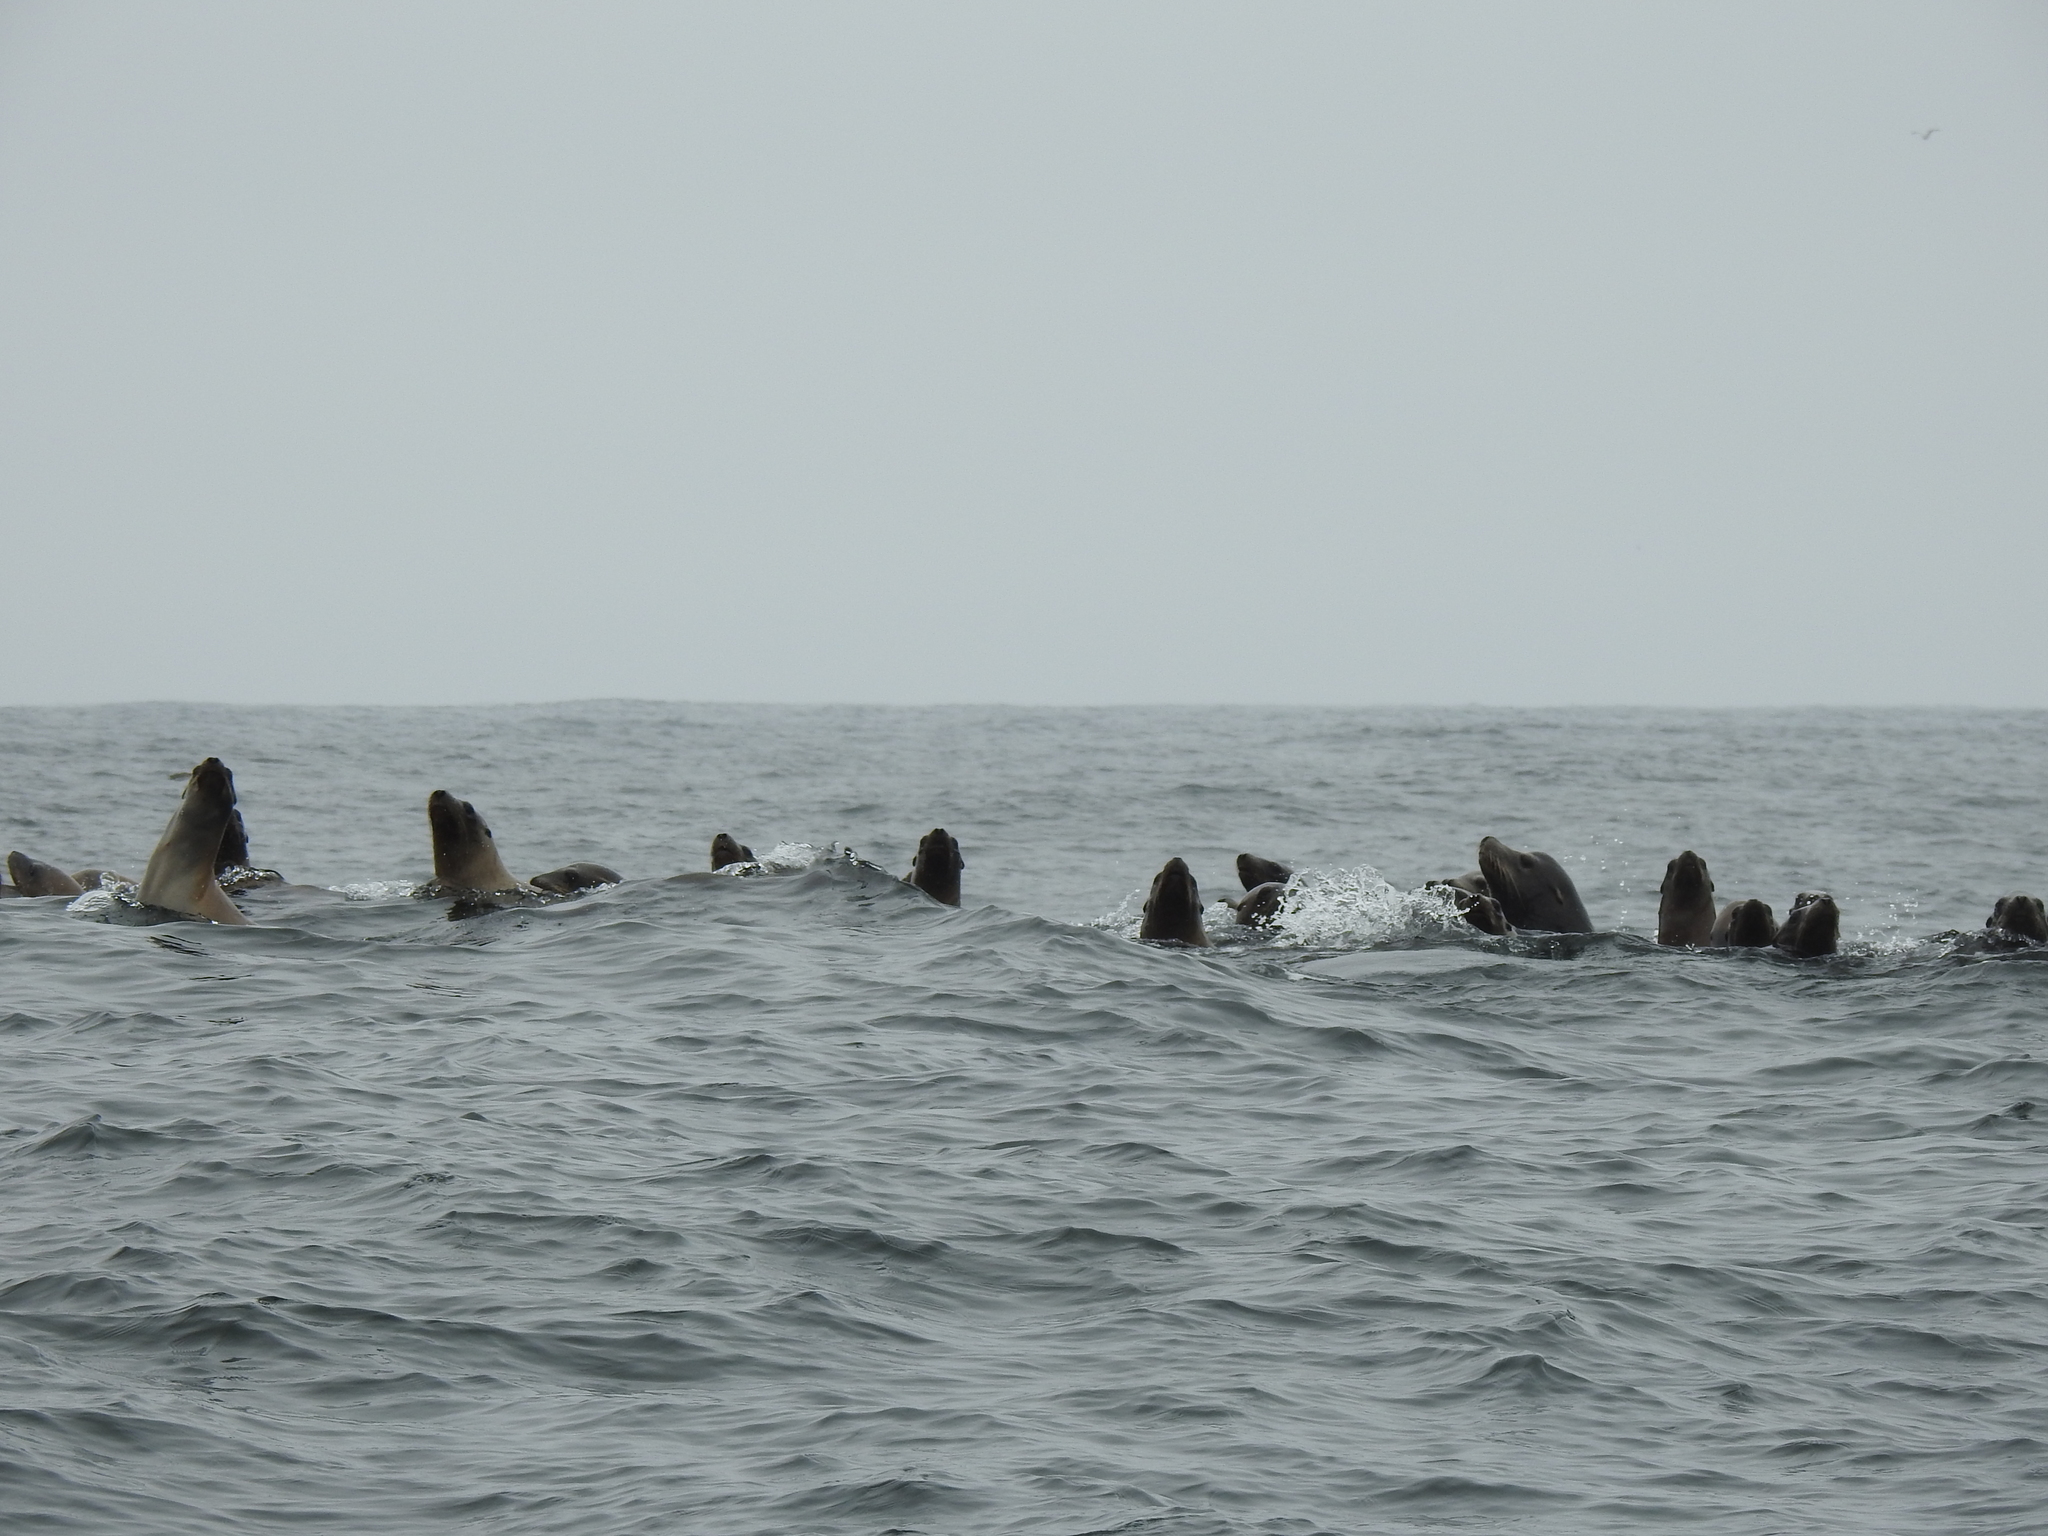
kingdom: Animalia
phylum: Chordata
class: Mammalia
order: Carnivora
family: Otariidae
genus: Zalophus
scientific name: Zalophus californianus
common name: California sea lion
